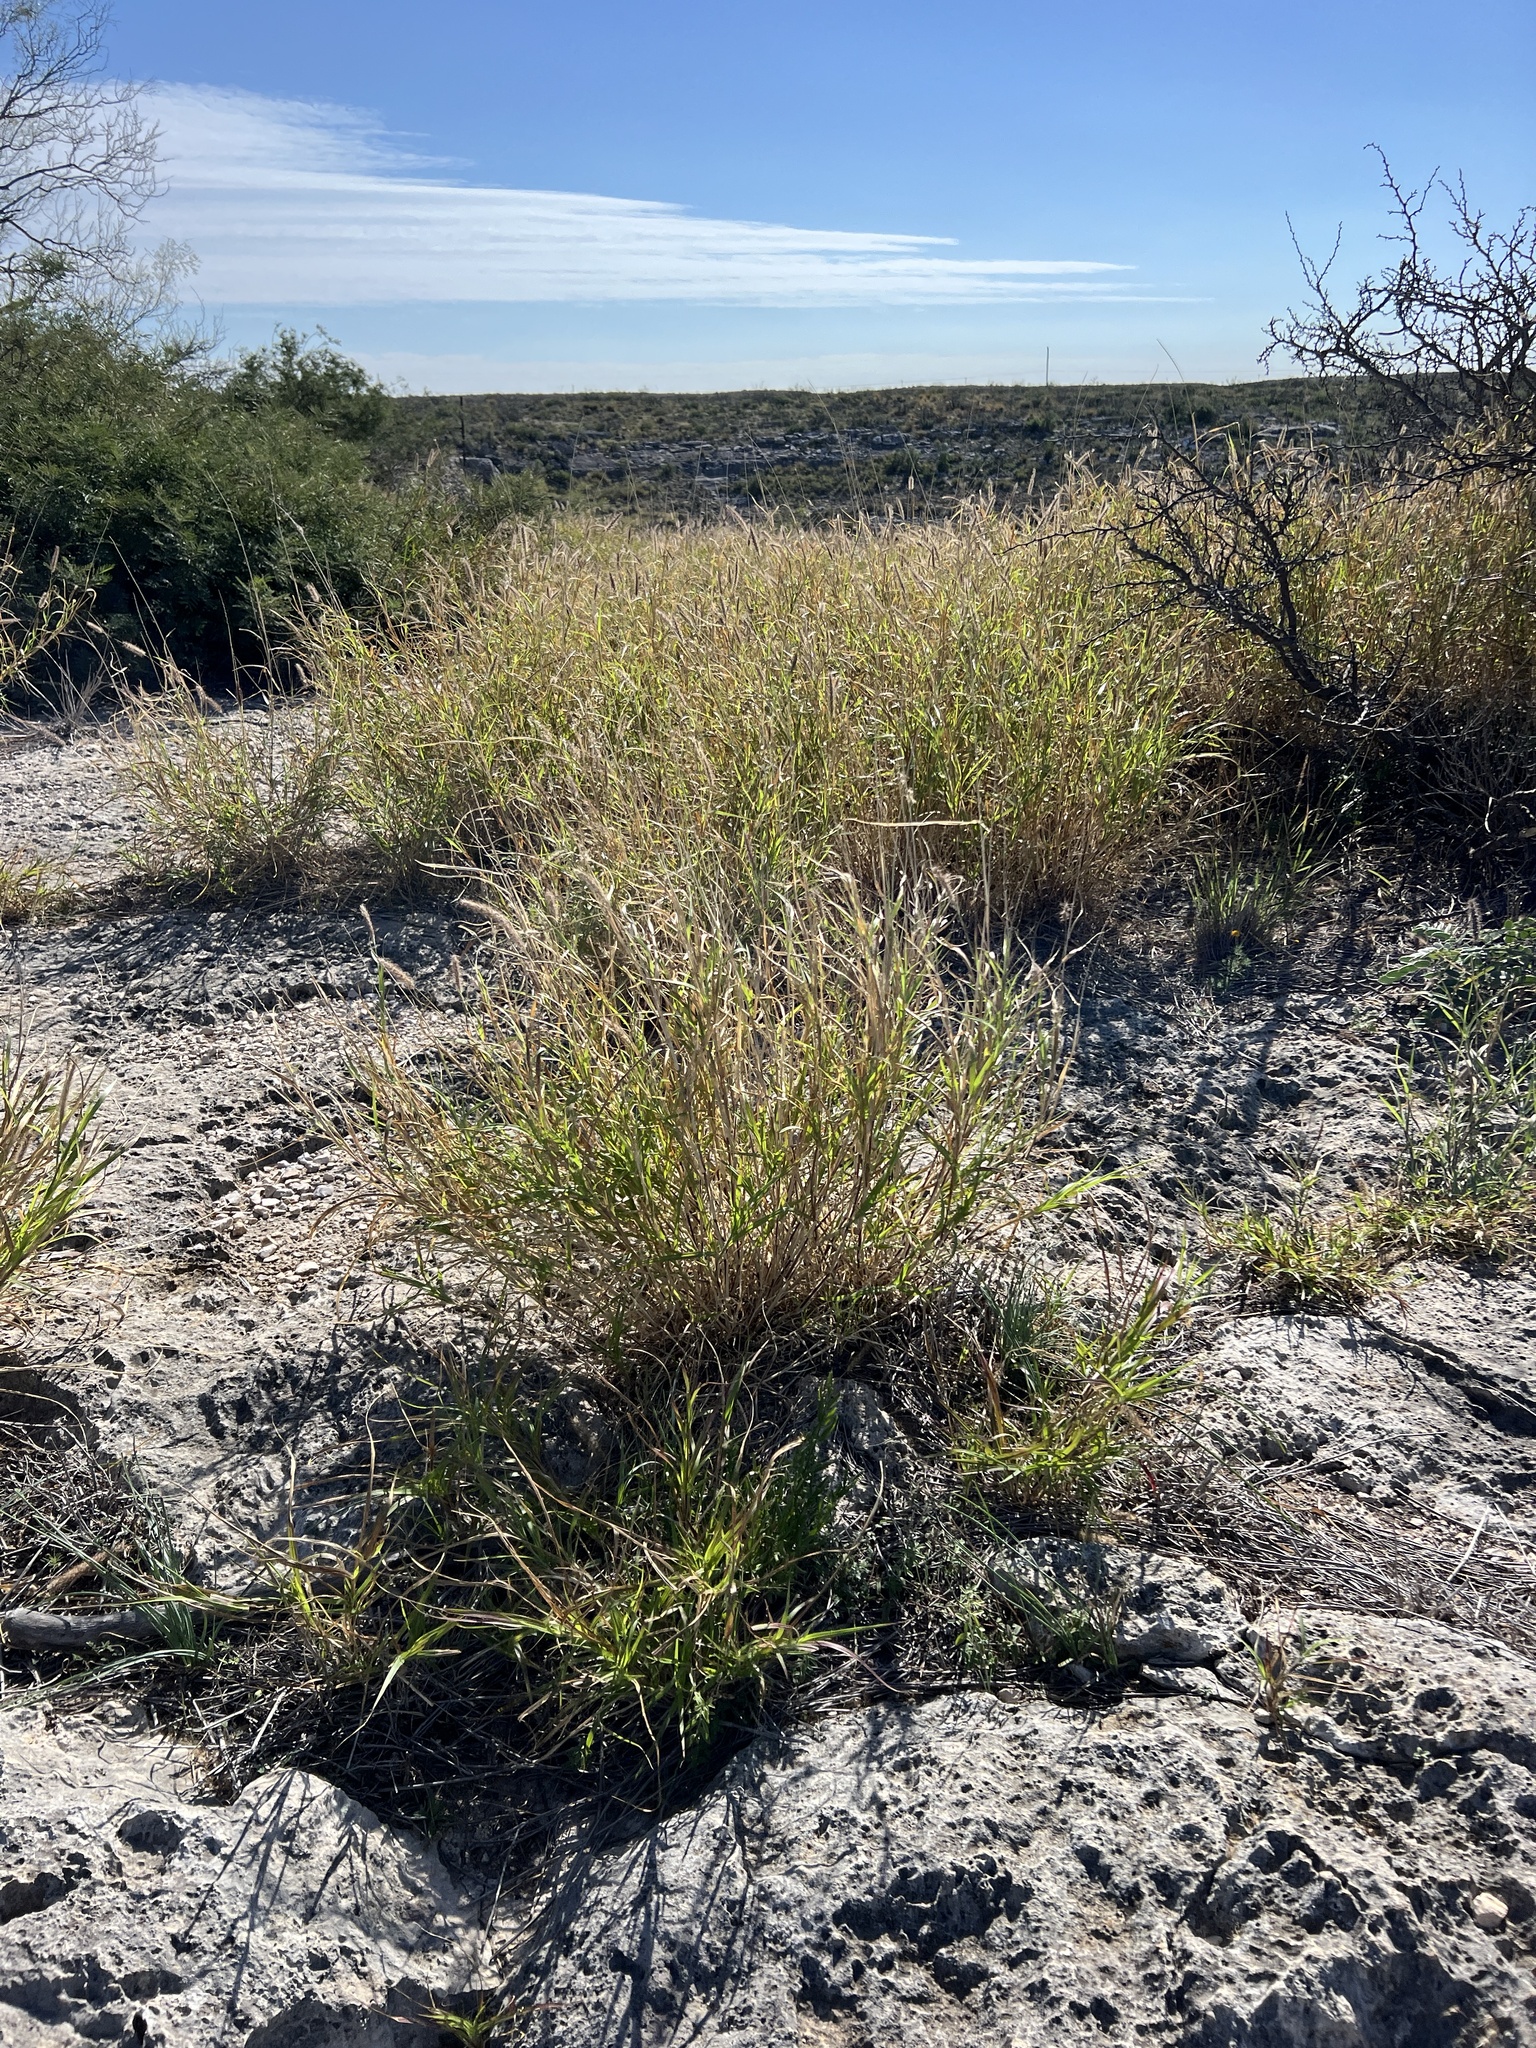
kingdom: Plantae
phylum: Tracheophyta
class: Liliopsida
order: Poales
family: Poaceae
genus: Cenchrus
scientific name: Cenchrus ciliaris
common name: Buffelgrass
